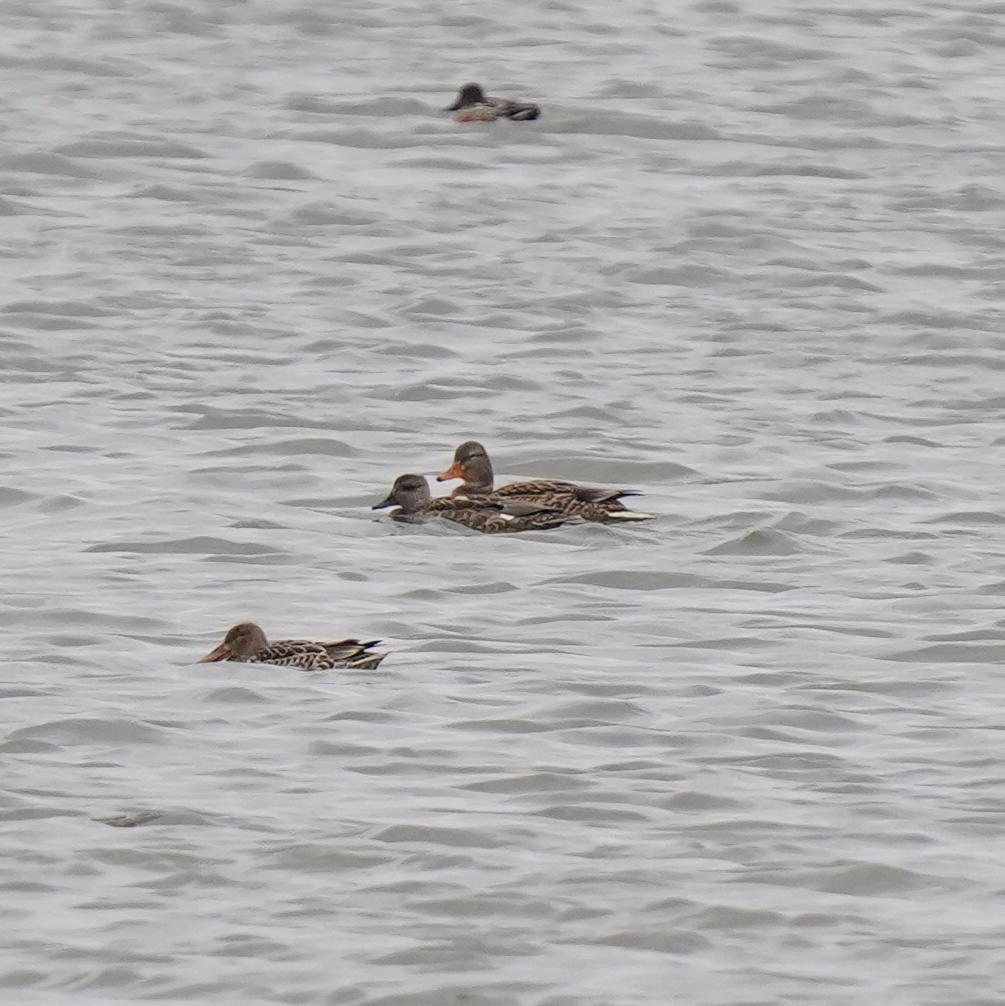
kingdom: Animalia
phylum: Chordata
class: Aves
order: Anseriformes
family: Anatidae
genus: Spatula
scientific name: Spatula clypeata
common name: Northern shoveler
